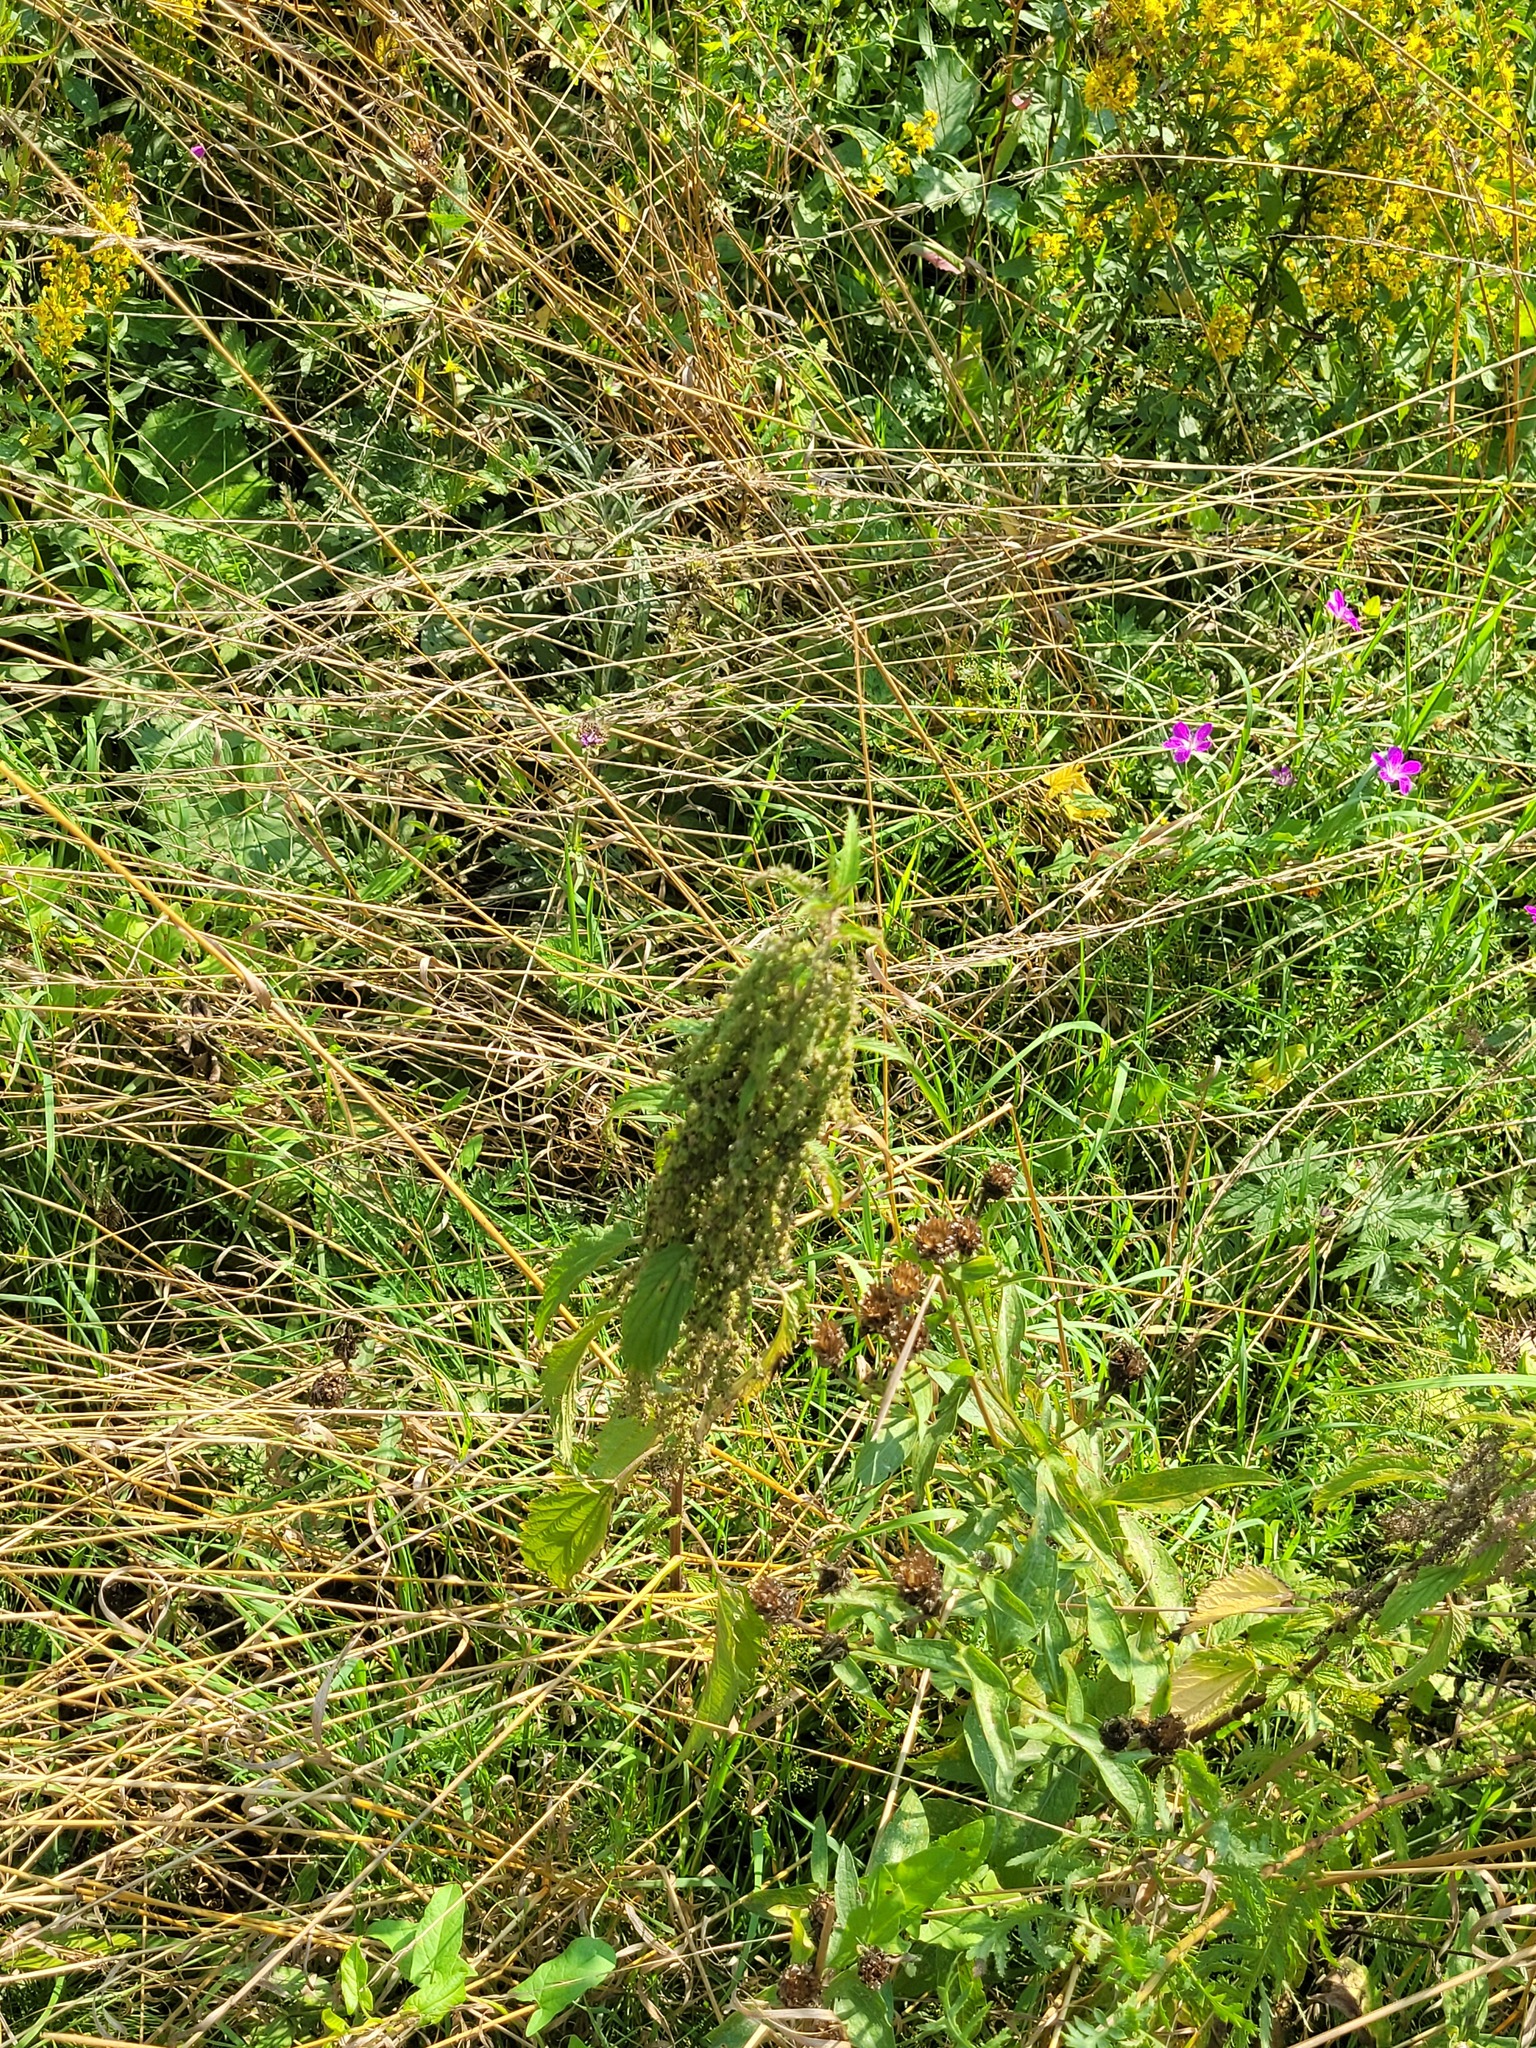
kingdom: Plantae
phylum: Tracheophyta
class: Magnoliopsida
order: Rosales
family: Urticaceae
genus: Urtica
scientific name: Urtica dioica
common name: Common nettle
